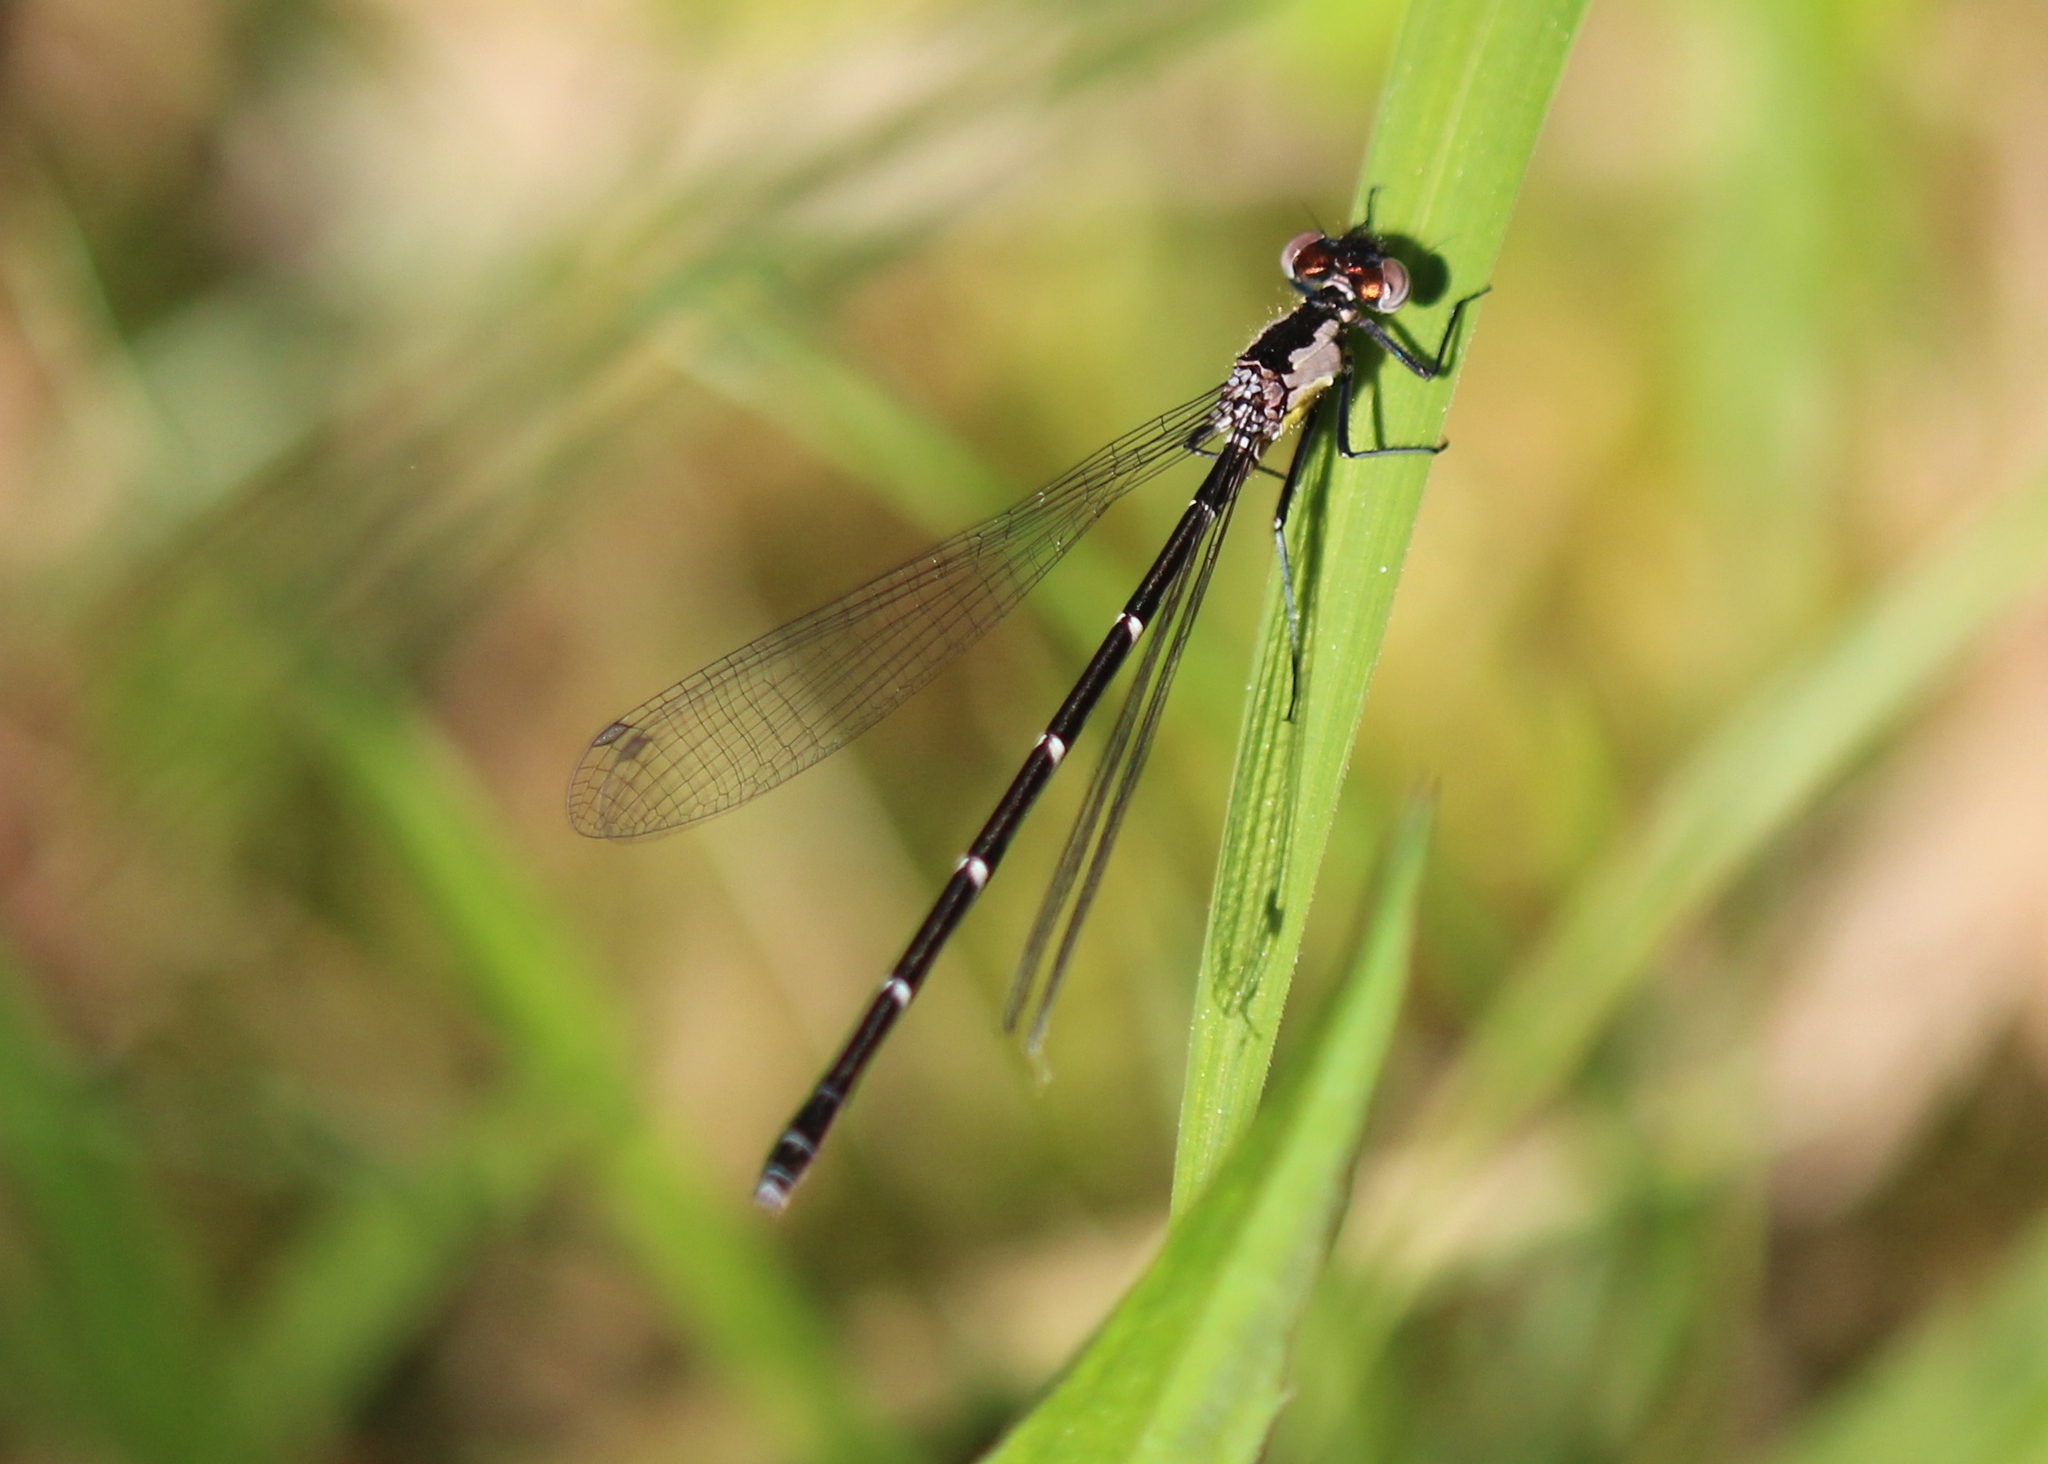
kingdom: Animalia
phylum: Arthropoda
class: Insecta
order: Odonata
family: Coenagrionidae
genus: Chromagrion
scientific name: Chromagrion conditum
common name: Aurora damsel
